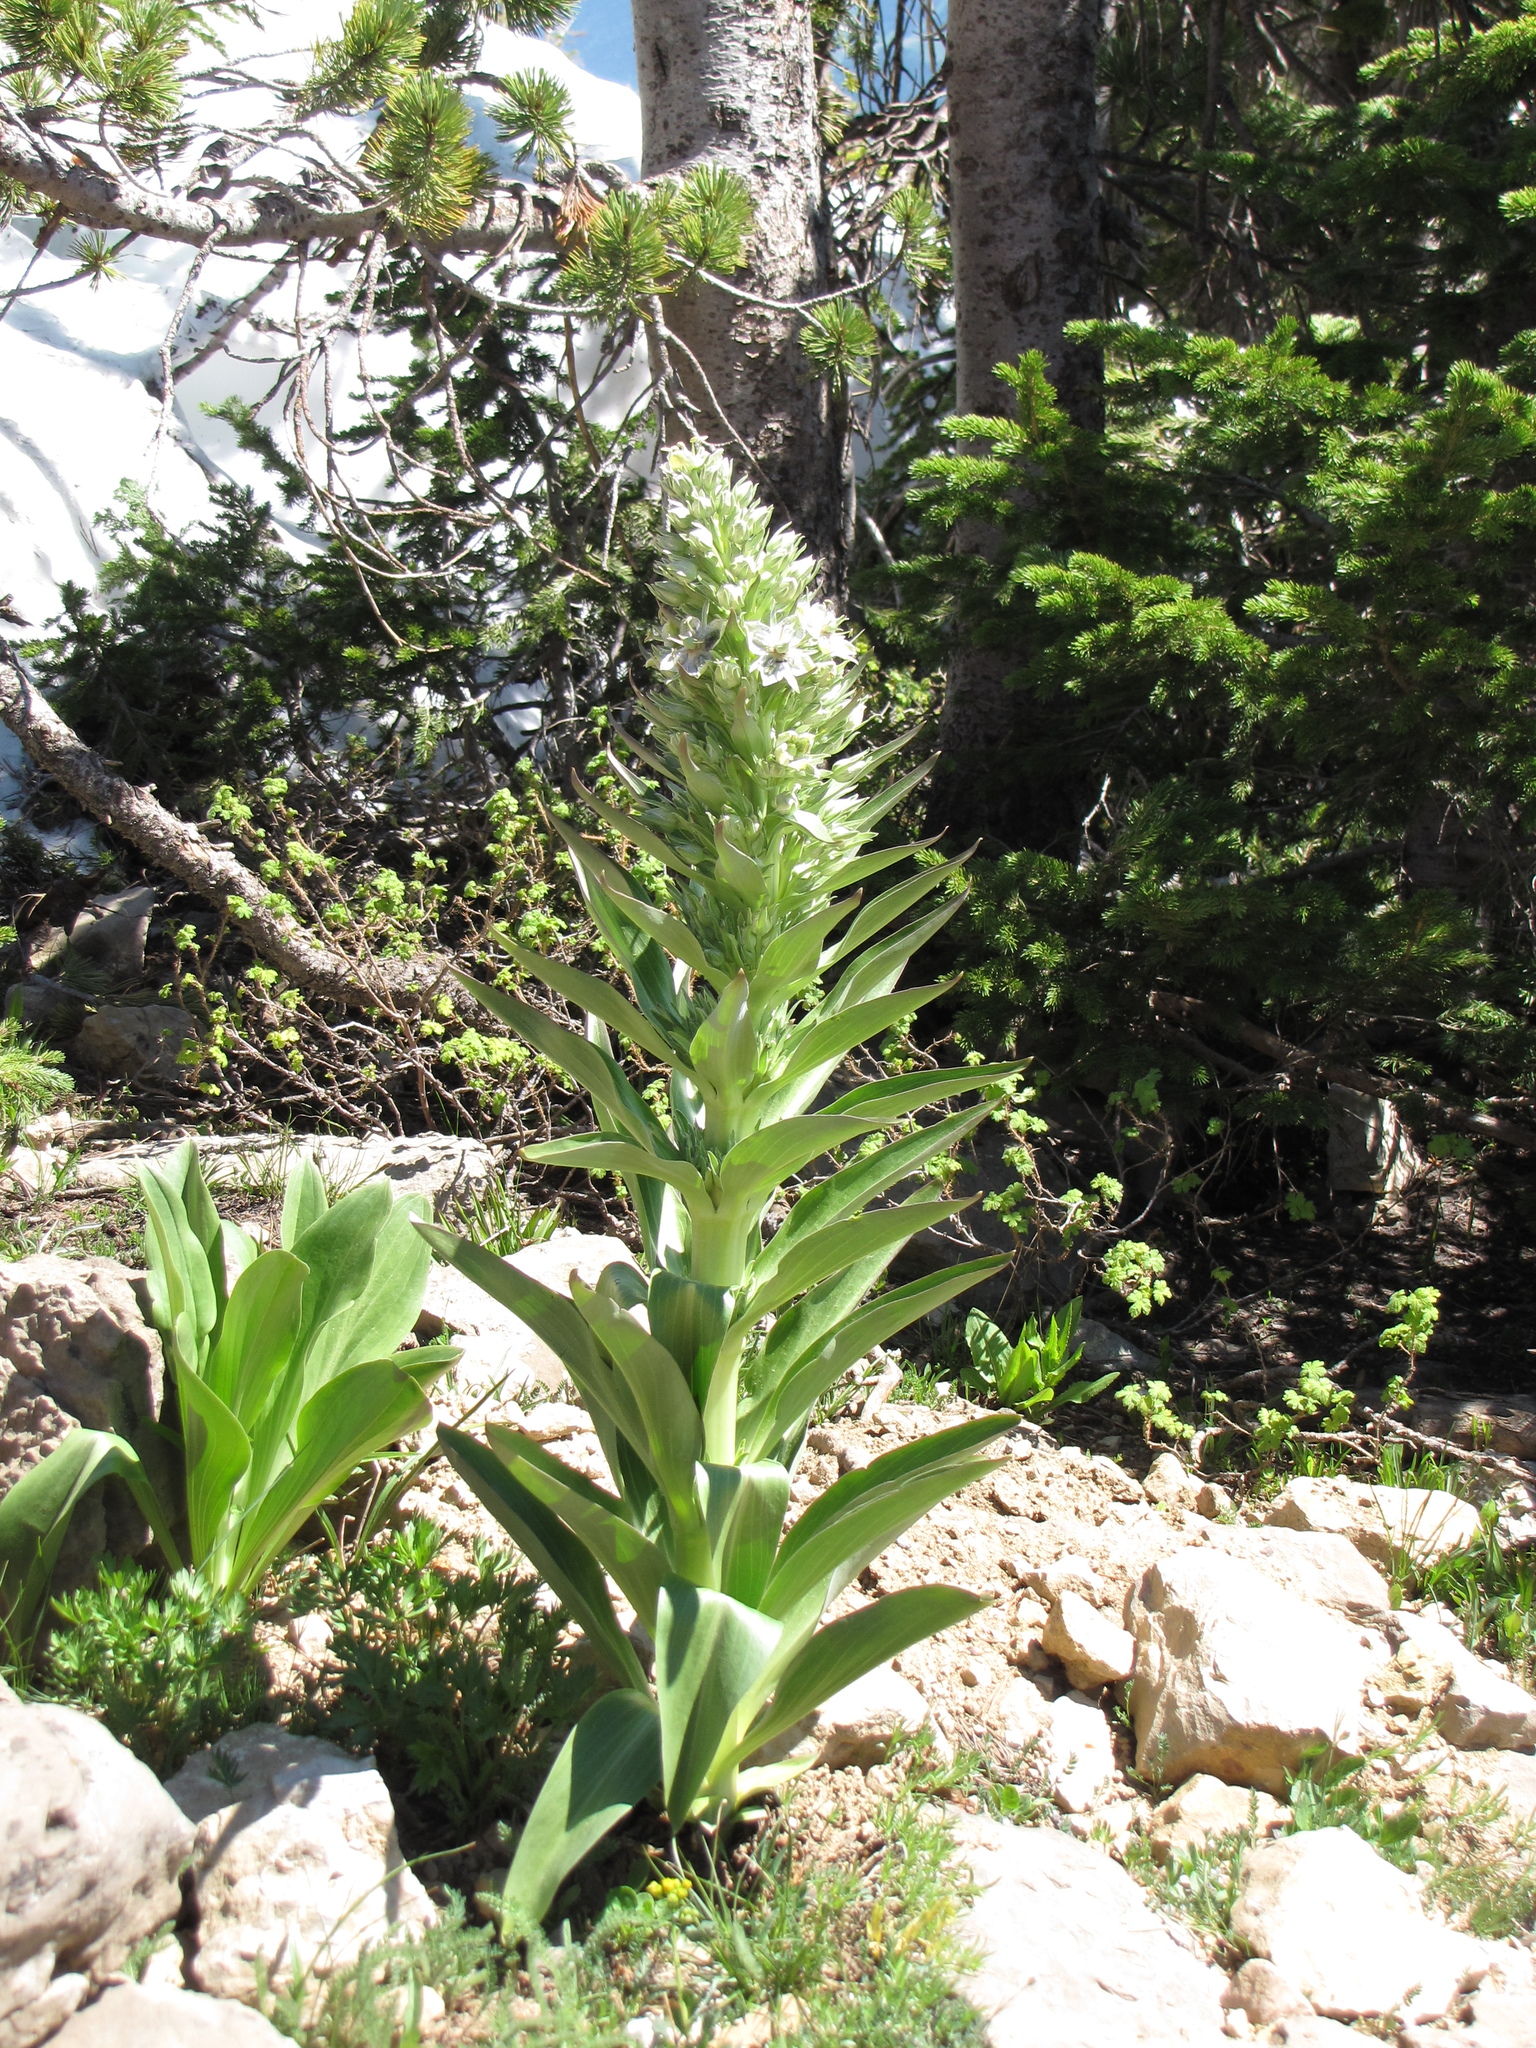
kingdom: Plantae
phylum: Tracheophyta
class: Magnoliopsida
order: Gentianales
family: Gentianaceae
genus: Frasera
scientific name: Frasera speciosa
